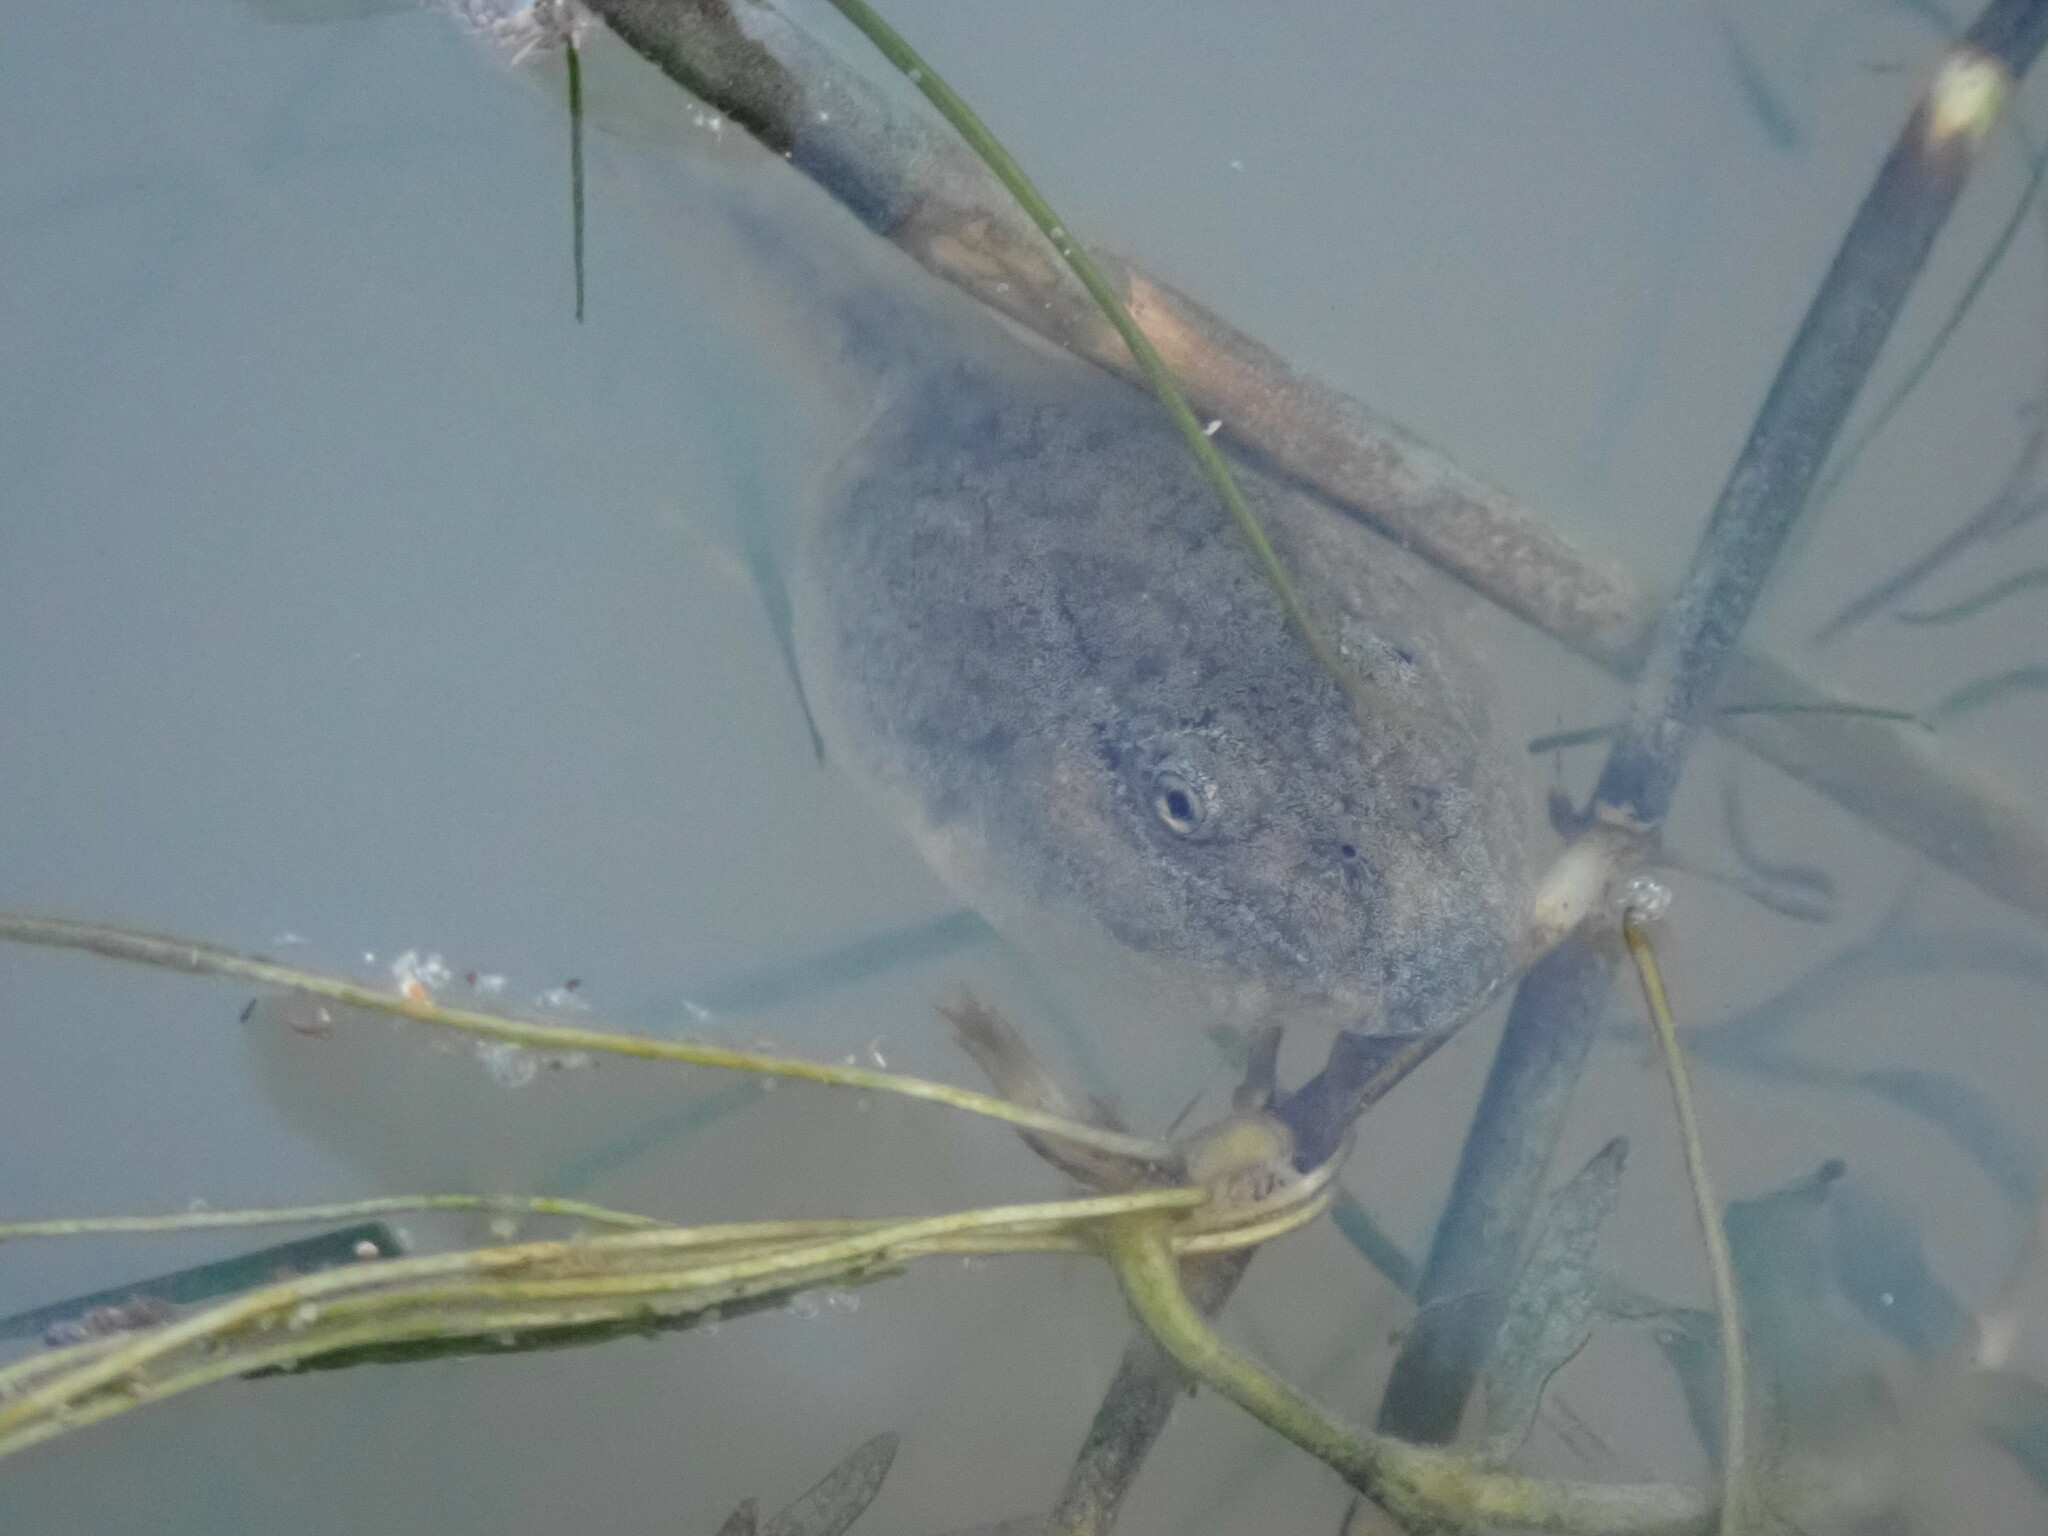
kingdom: Animalia
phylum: Chordata
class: Amphibia
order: Anura
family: Pelodytidae
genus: Pelodytes
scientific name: Pelodytes punctatus
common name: Parsley frog
